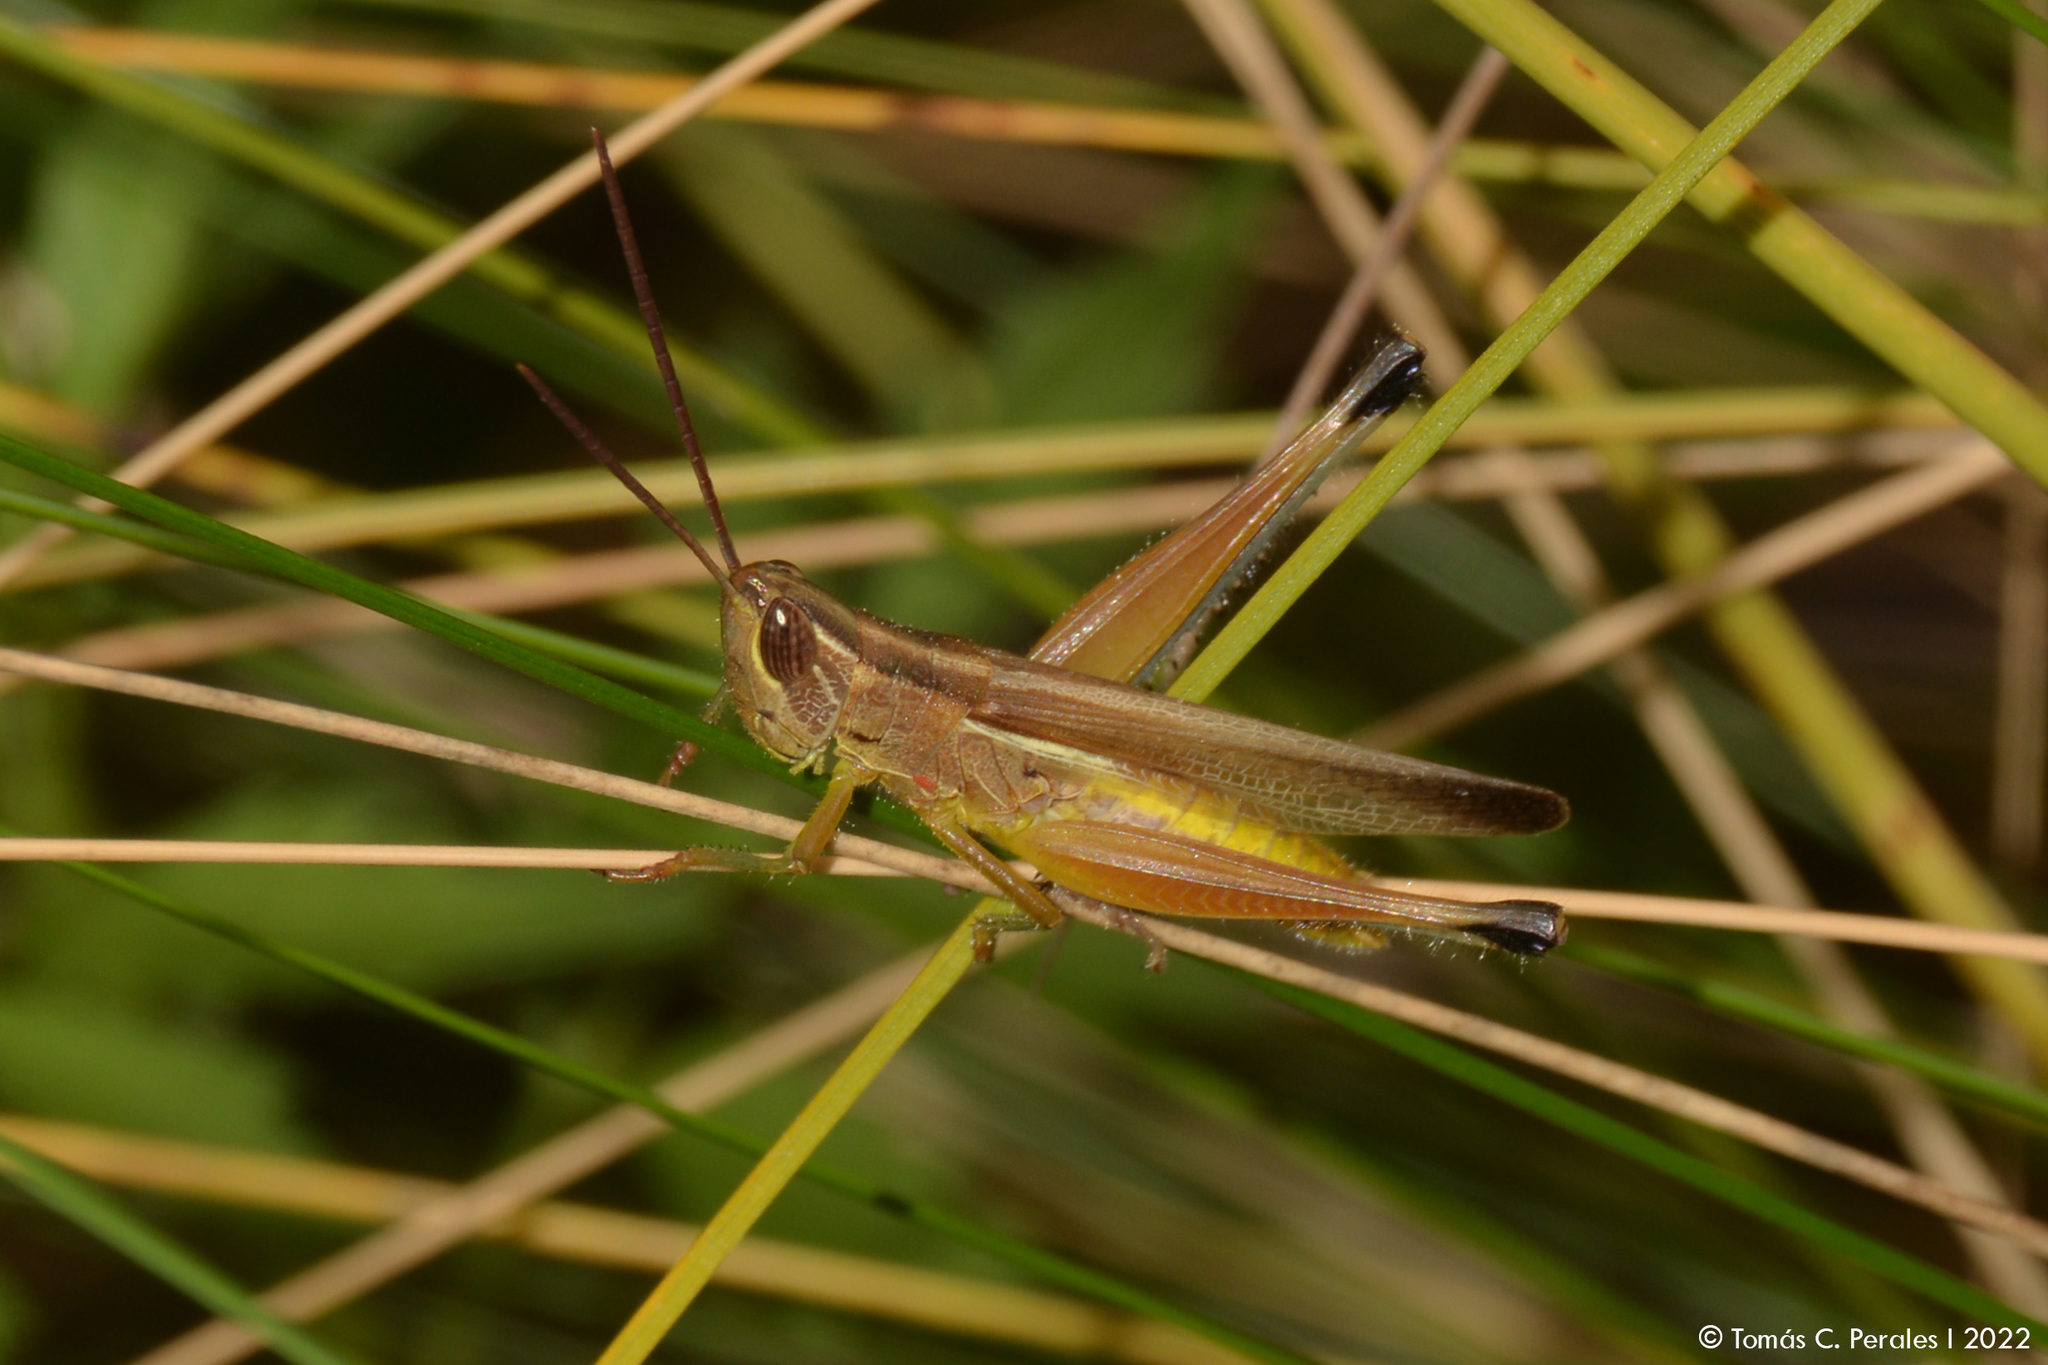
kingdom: Animalia
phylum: Arthropoda
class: Insecta
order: Orthoptera
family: Acrididae
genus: Staurorhectus
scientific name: Staurorhectus longicornis
